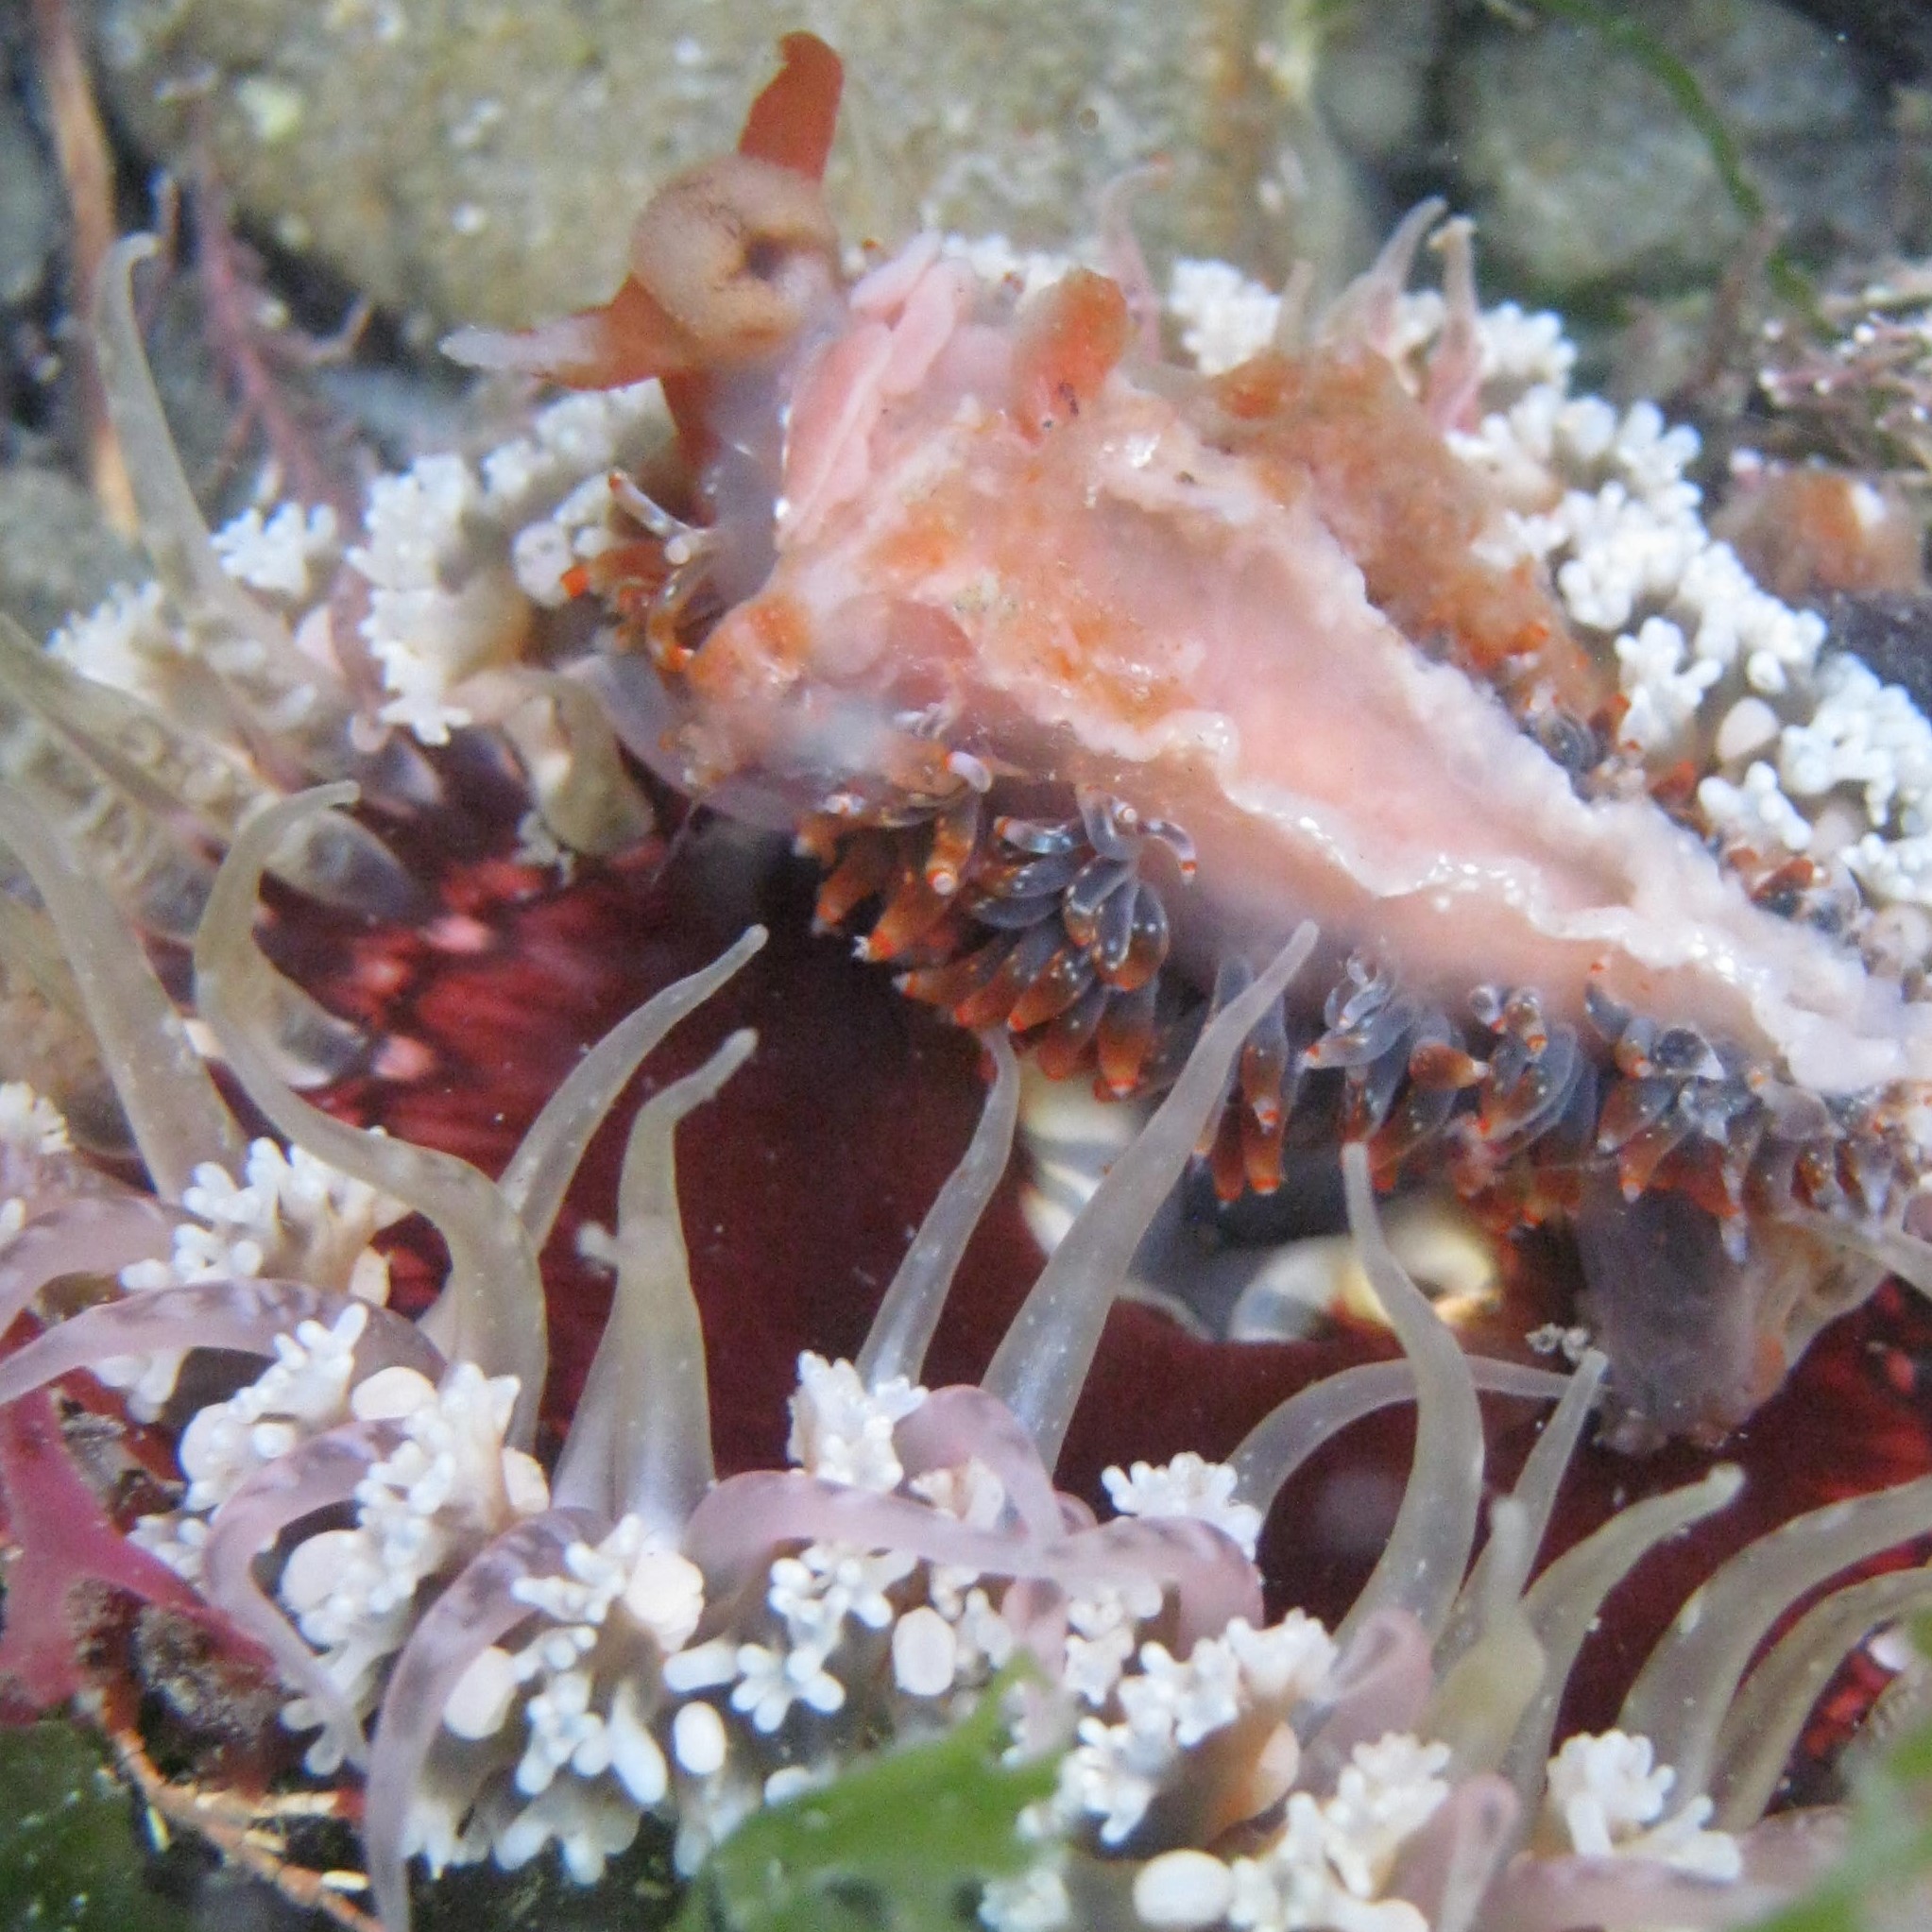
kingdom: Animalia
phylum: Mollusca
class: Gastropoda
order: Nudibranchia
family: Aeolidiidae
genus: Baeolidia
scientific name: Baeolidia australis
